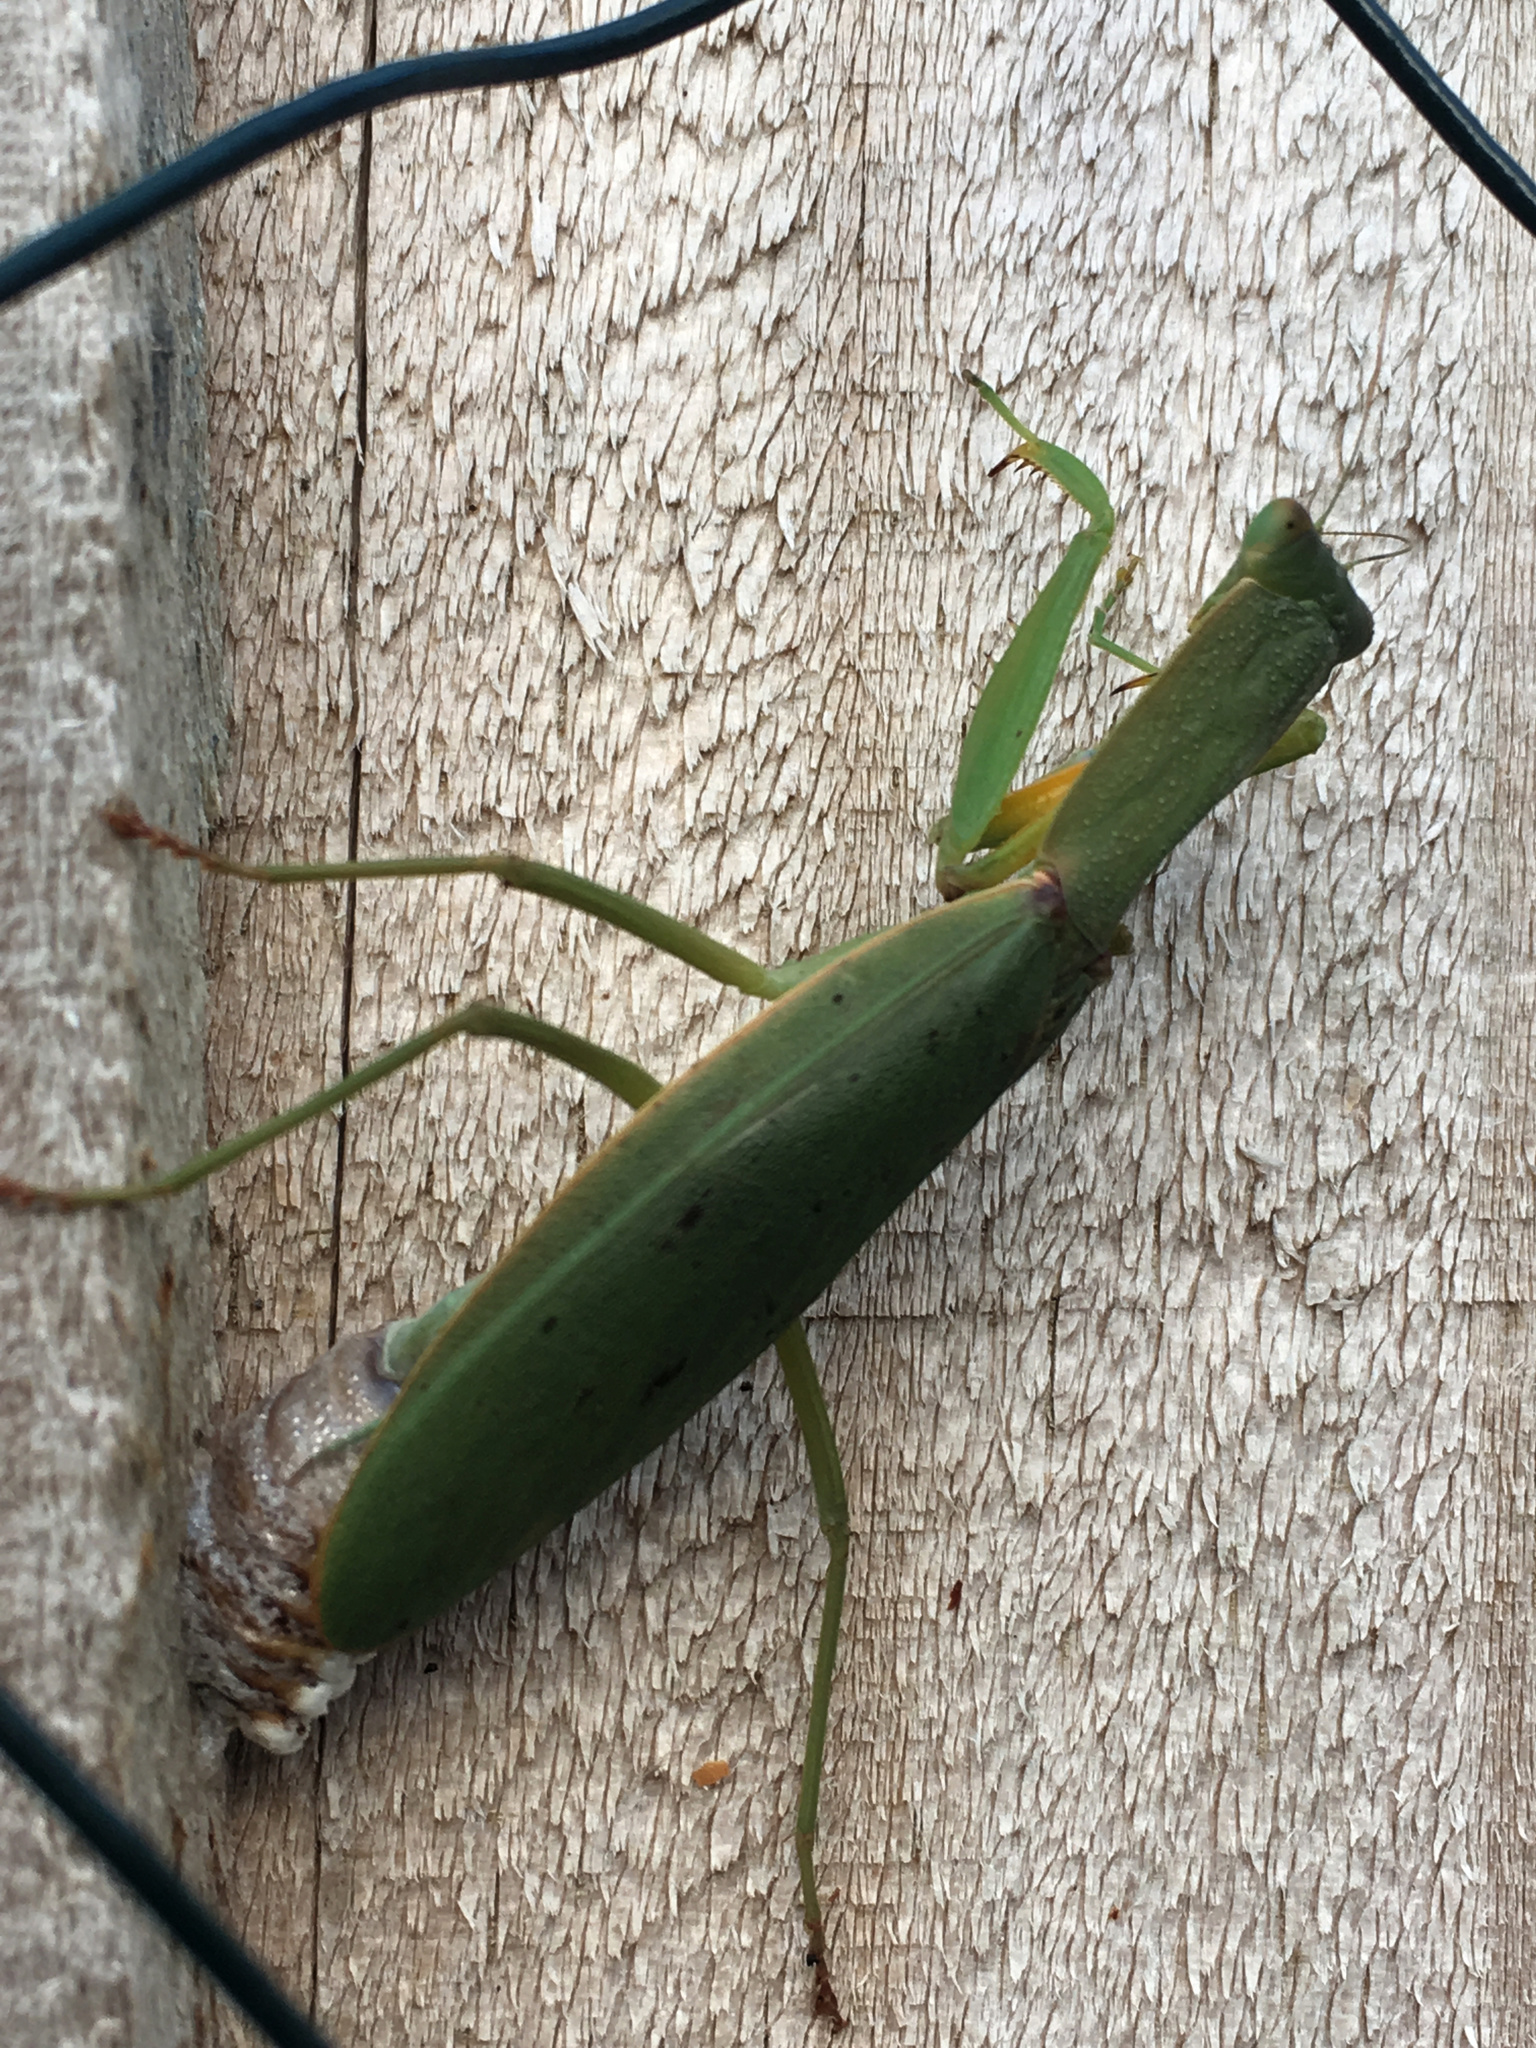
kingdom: Animalia
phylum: Arthropoda
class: Insecta
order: Mantodea
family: Mantidae
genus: Orthodera
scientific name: Orthodera novaezealandiae
